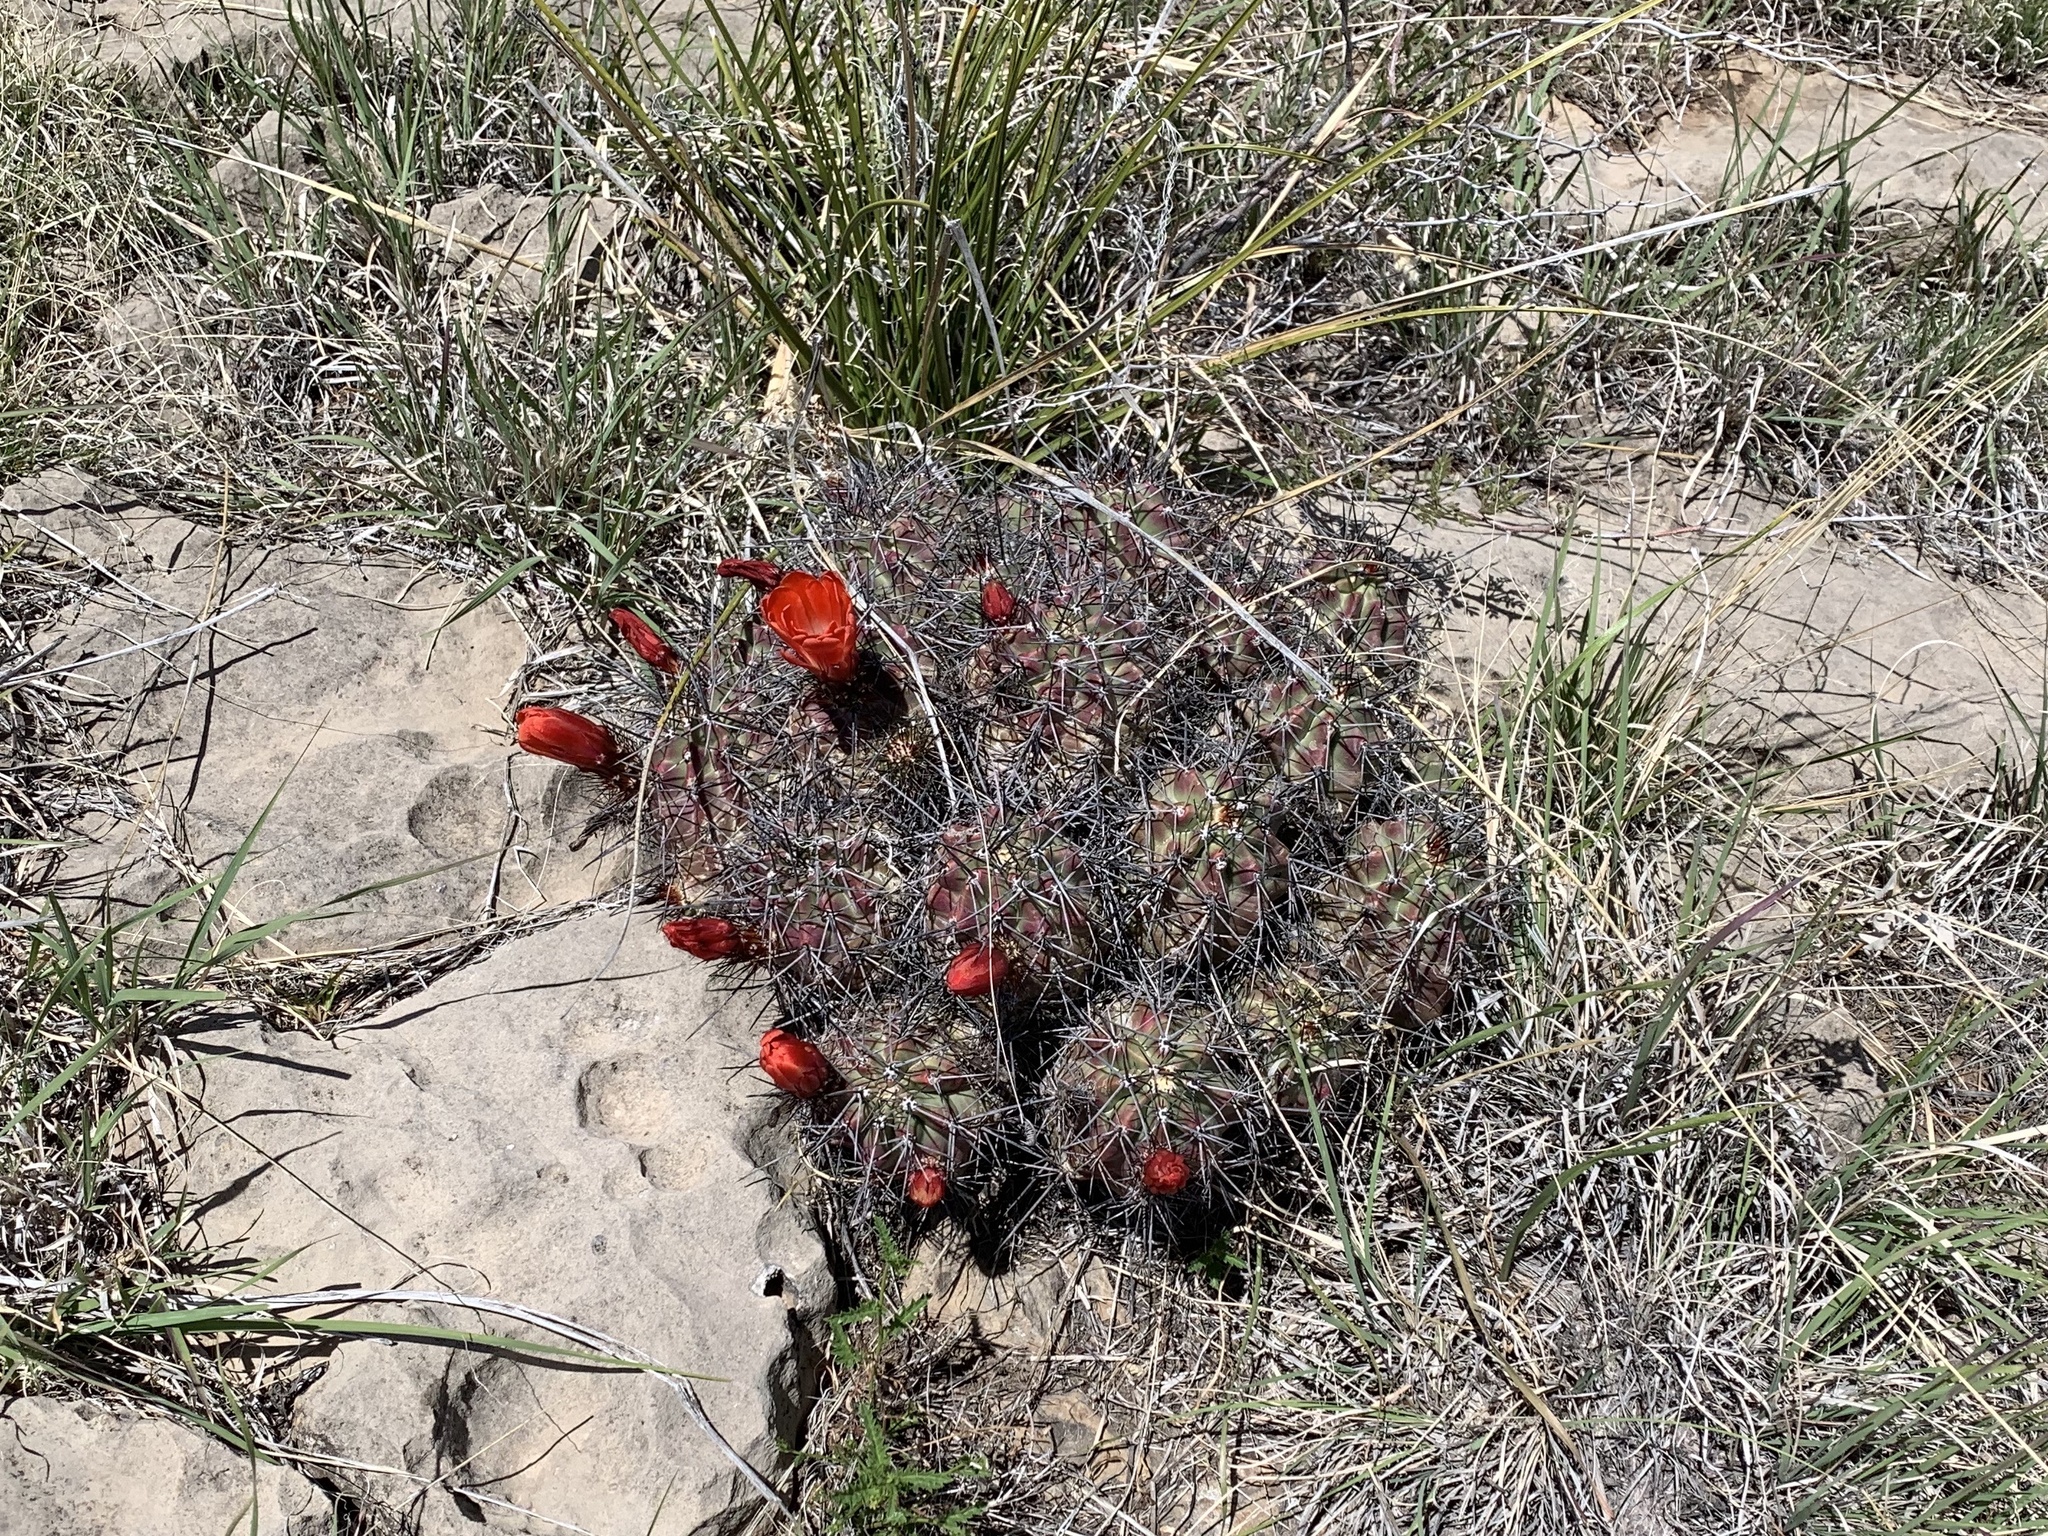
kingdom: Plantae
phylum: Tracheophyta
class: Magnoliopsida
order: Caryophyllales
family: Cactaceae
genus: Echinocereus
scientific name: Echinocereus coccineus
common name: Scarlet hedgehog cactus
